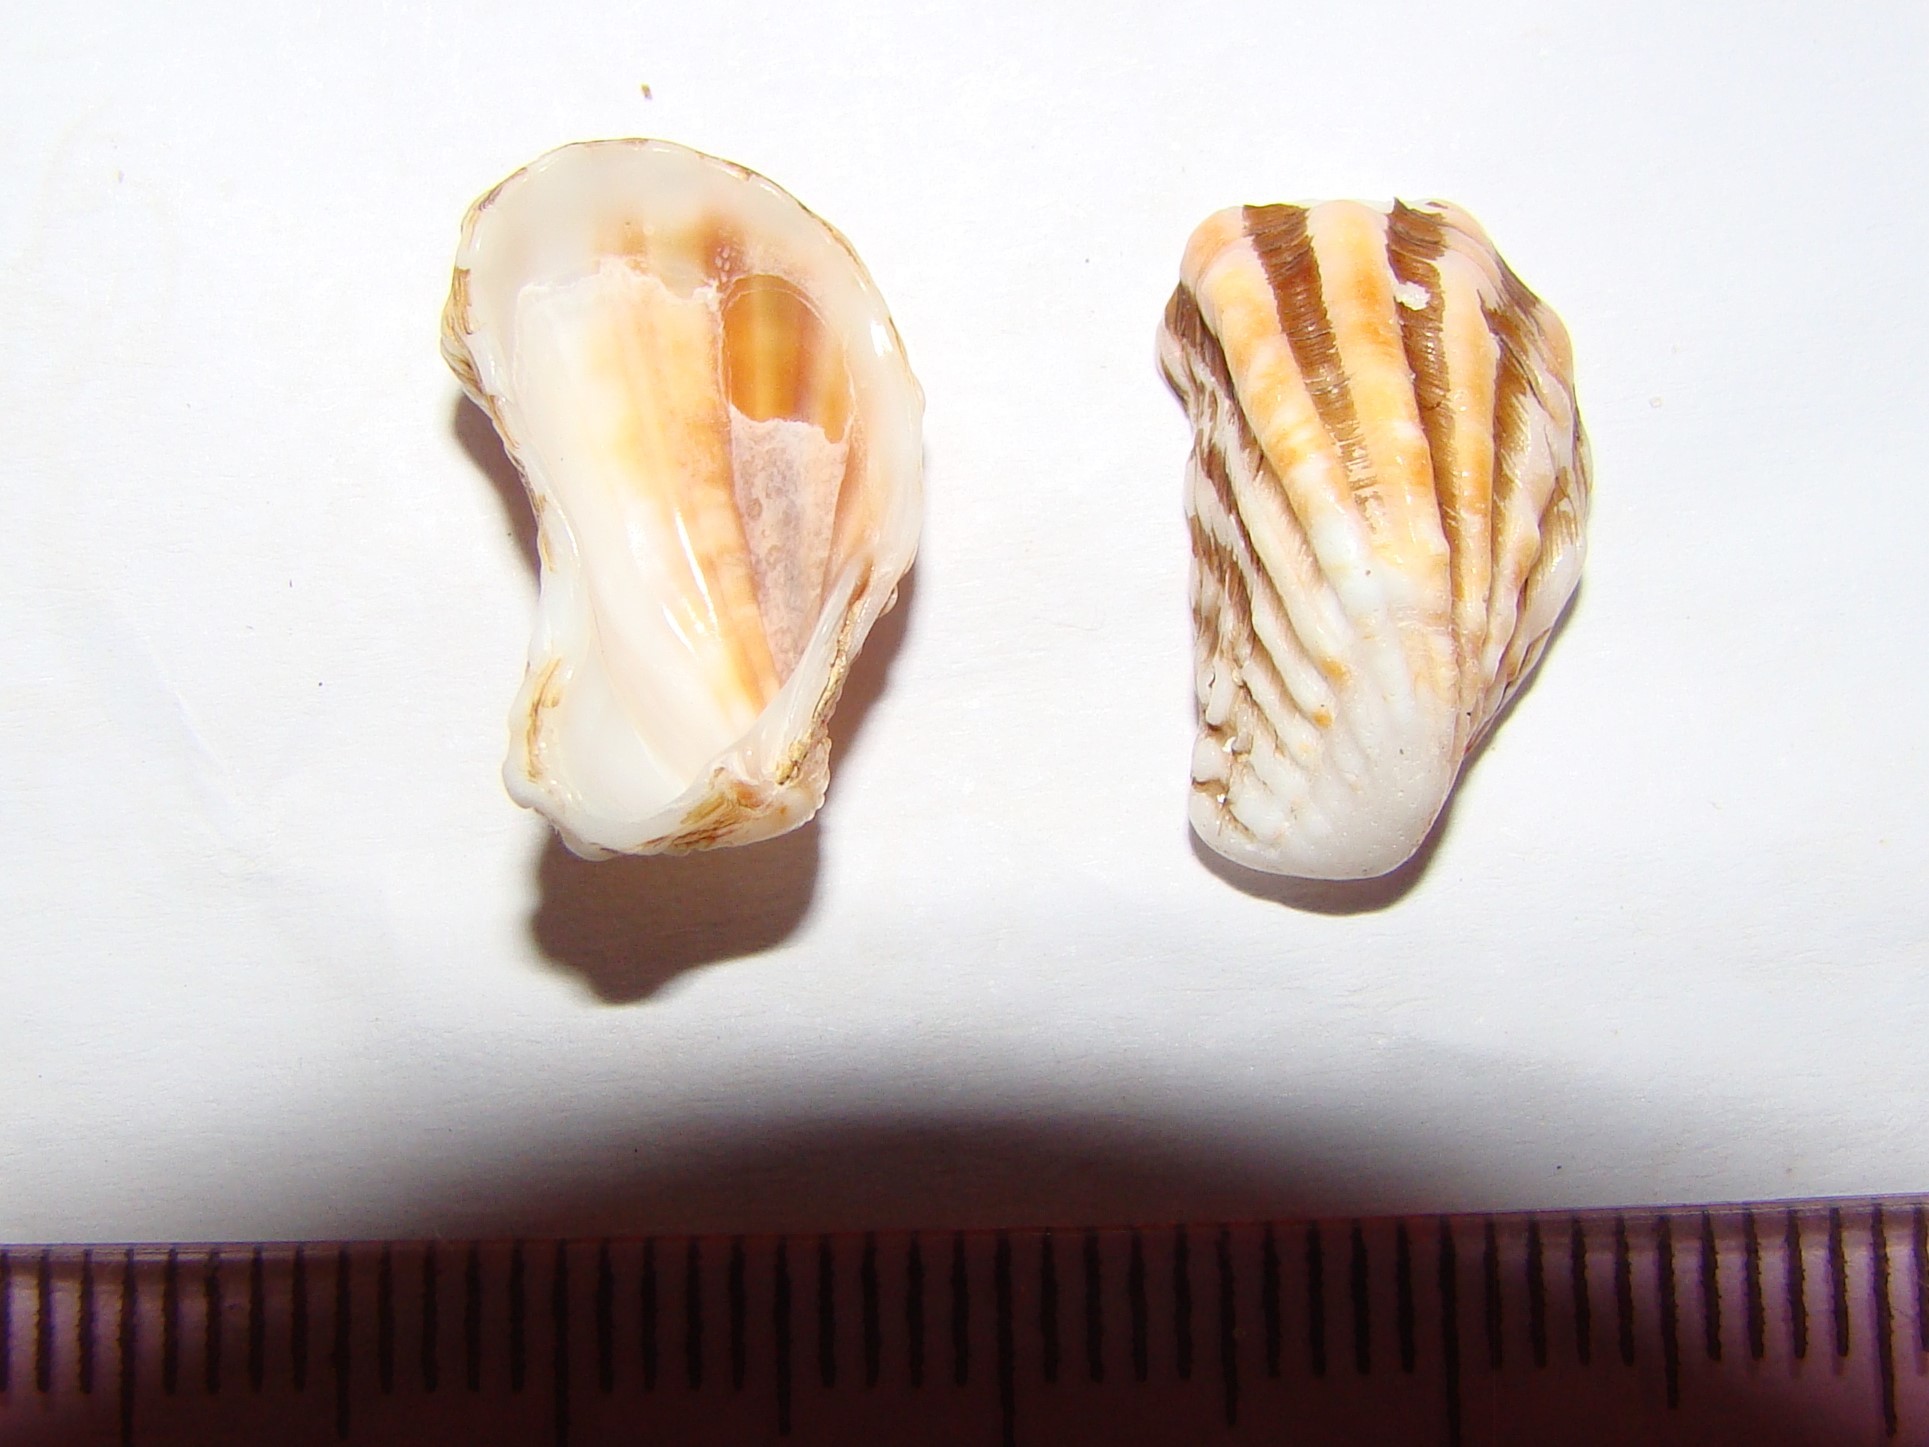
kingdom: Animalia
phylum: Mollusca
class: Bivalvia
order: Carditida
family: Carditidae
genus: Cardita
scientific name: Cardita distorta
